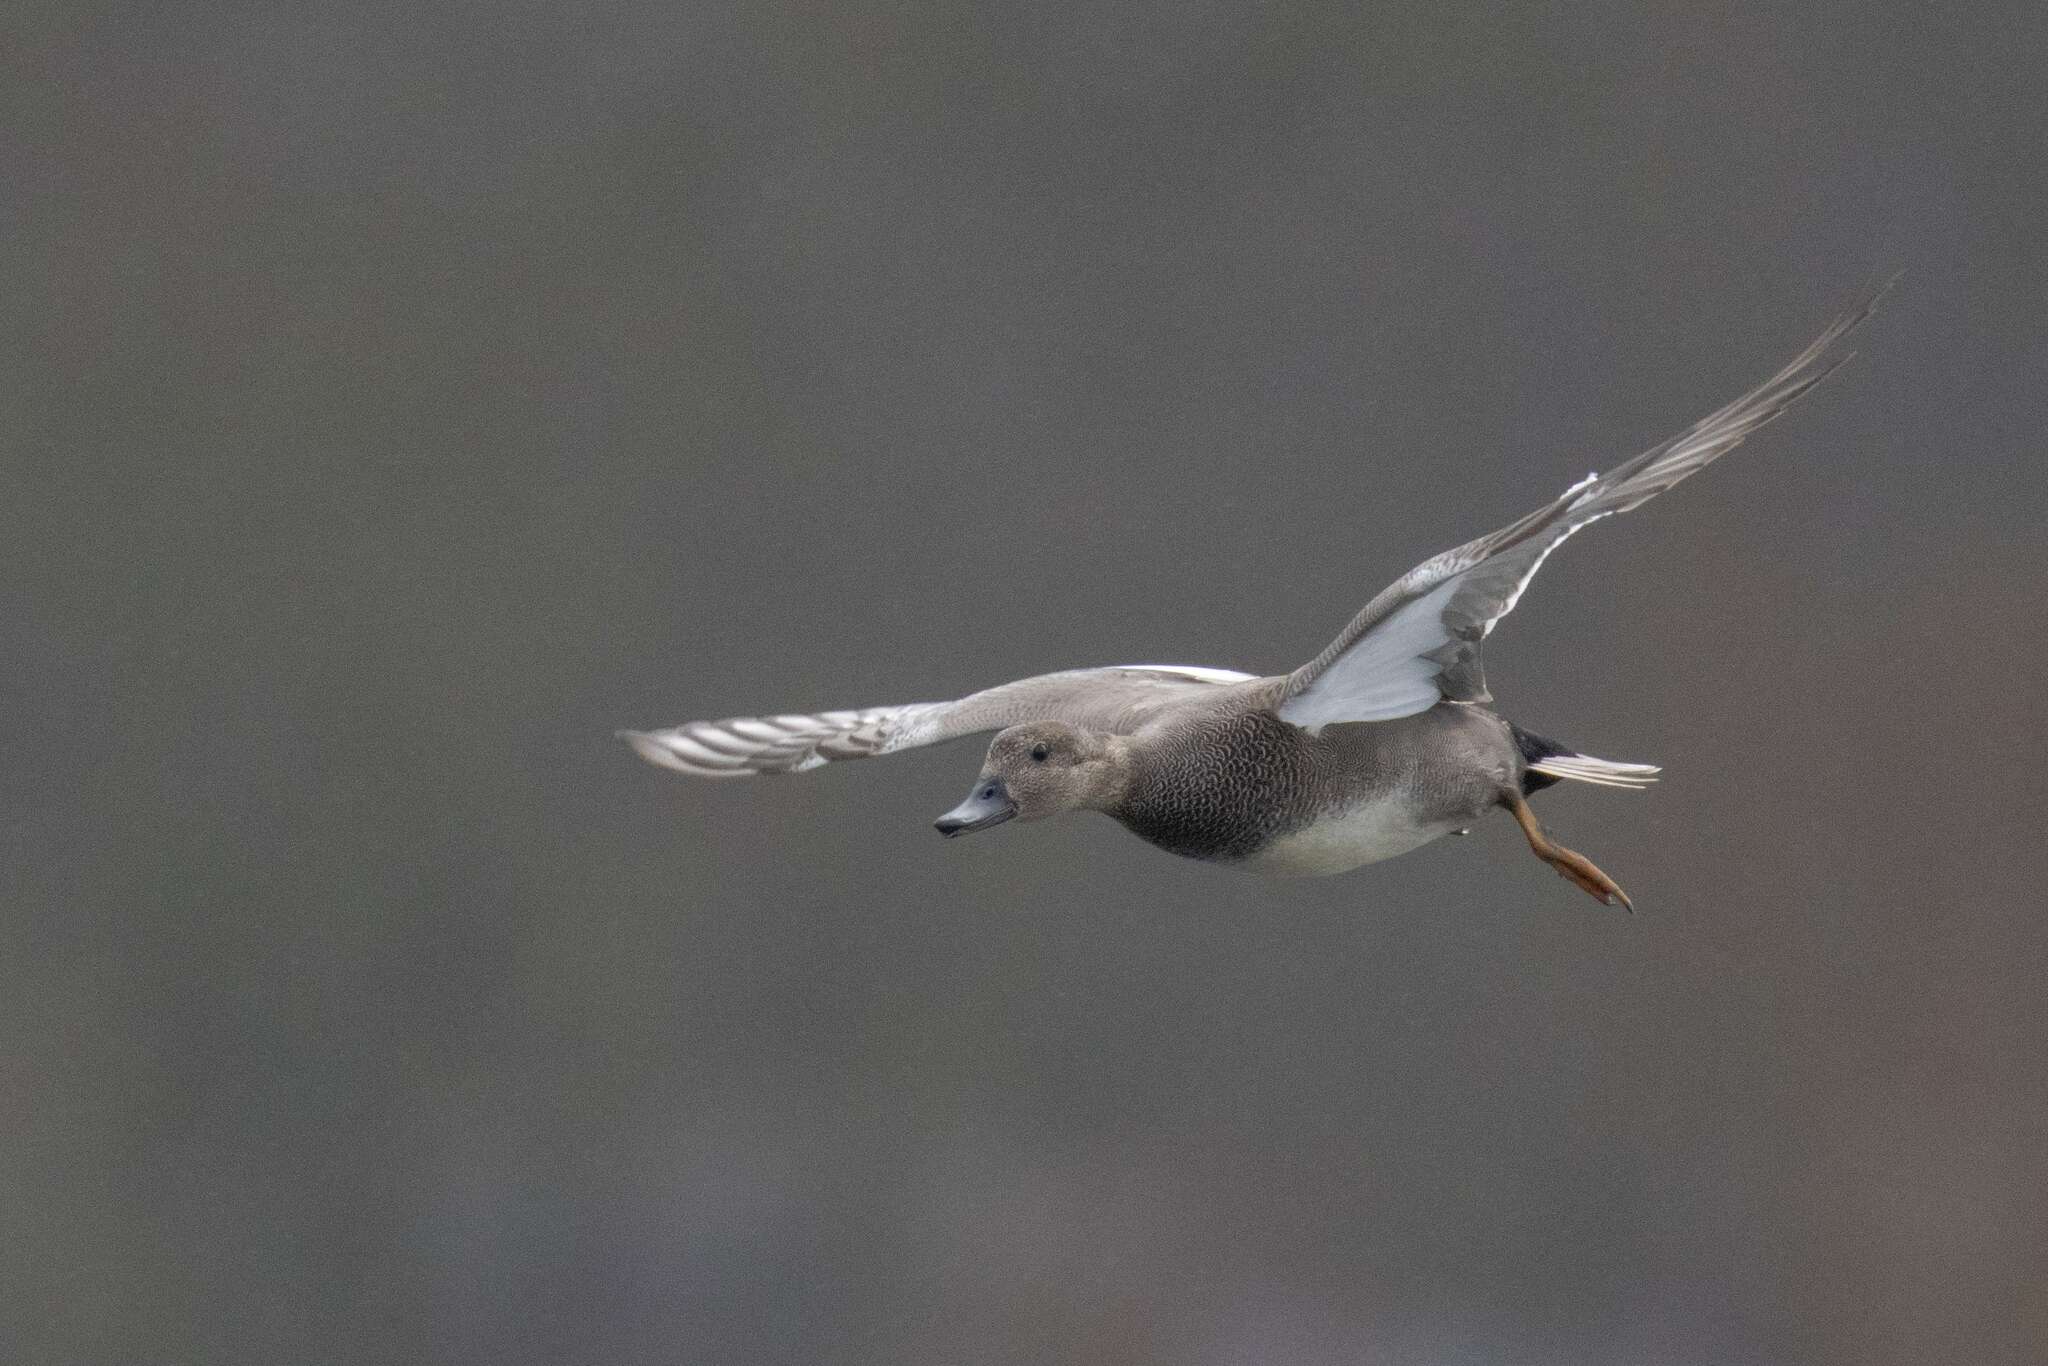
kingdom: Animalia
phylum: Chordata
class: Aves
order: Anseriformes
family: Anatidae
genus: Mareca
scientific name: Mareca strepera
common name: Gadwall
